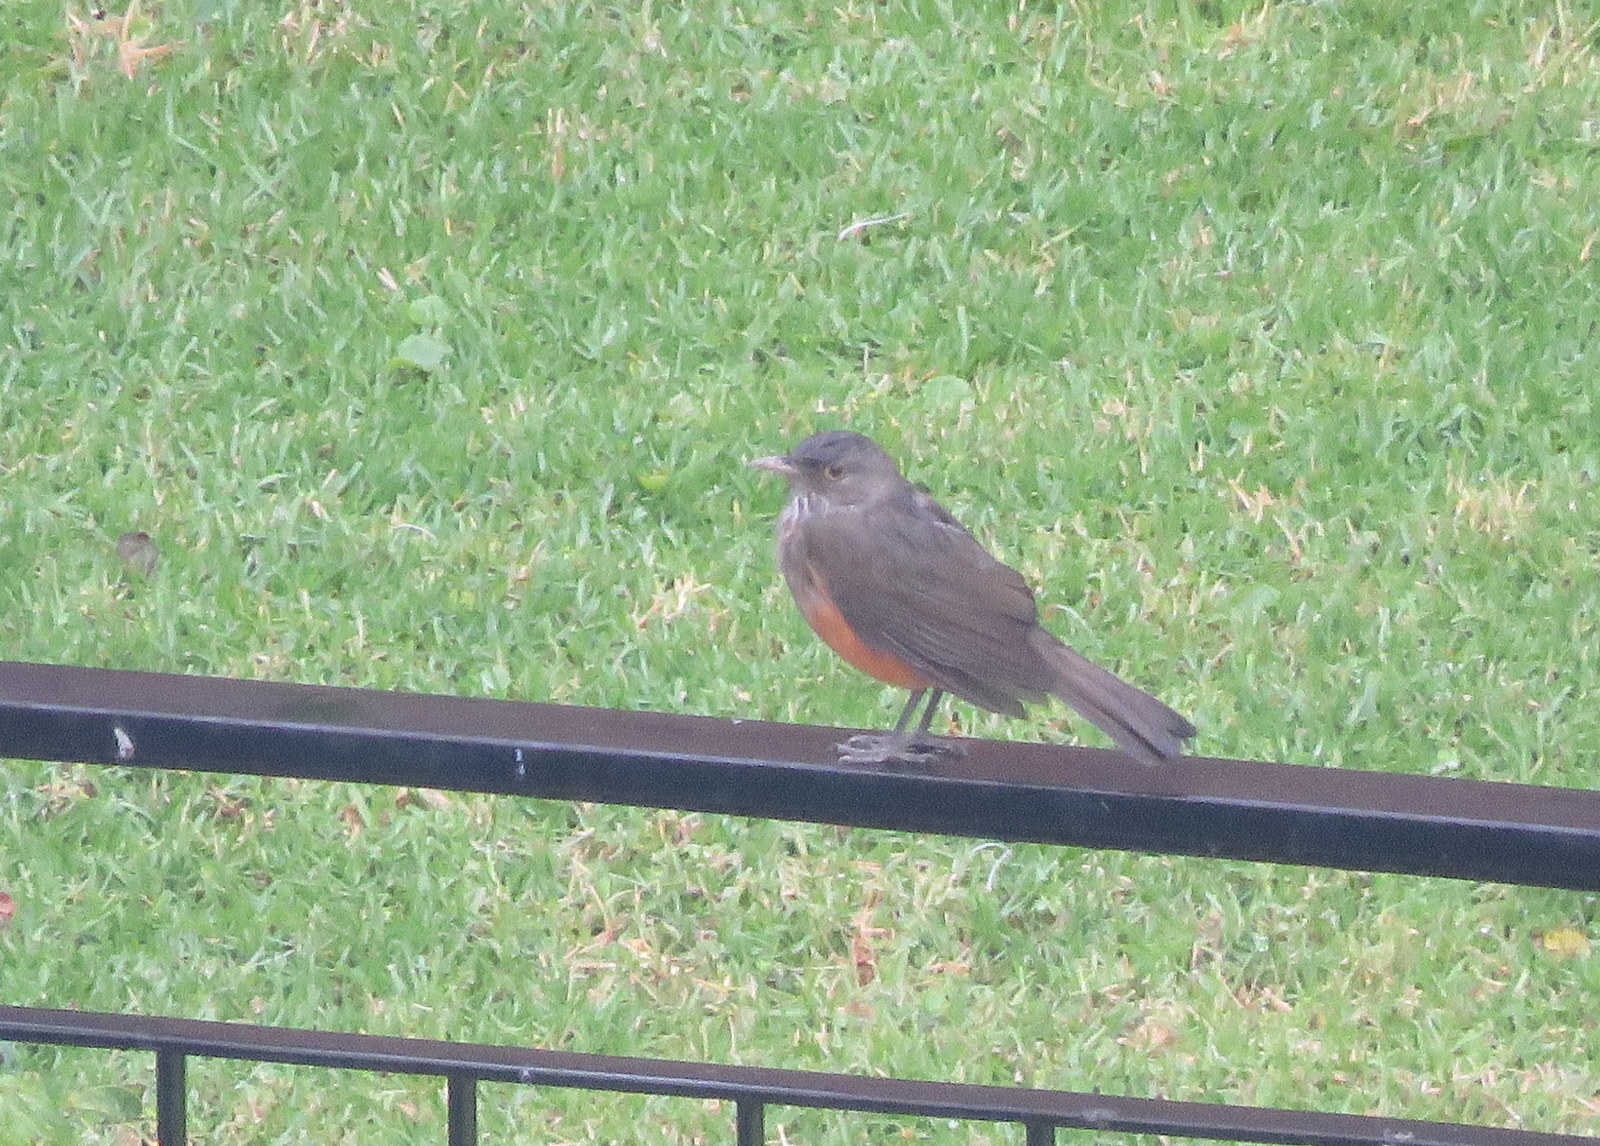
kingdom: Animalia
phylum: Chordata
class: Aves
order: Passeriformes
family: Turdidae
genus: Turdus
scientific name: Turdus rufiventris
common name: Rufous-bellied thrush
